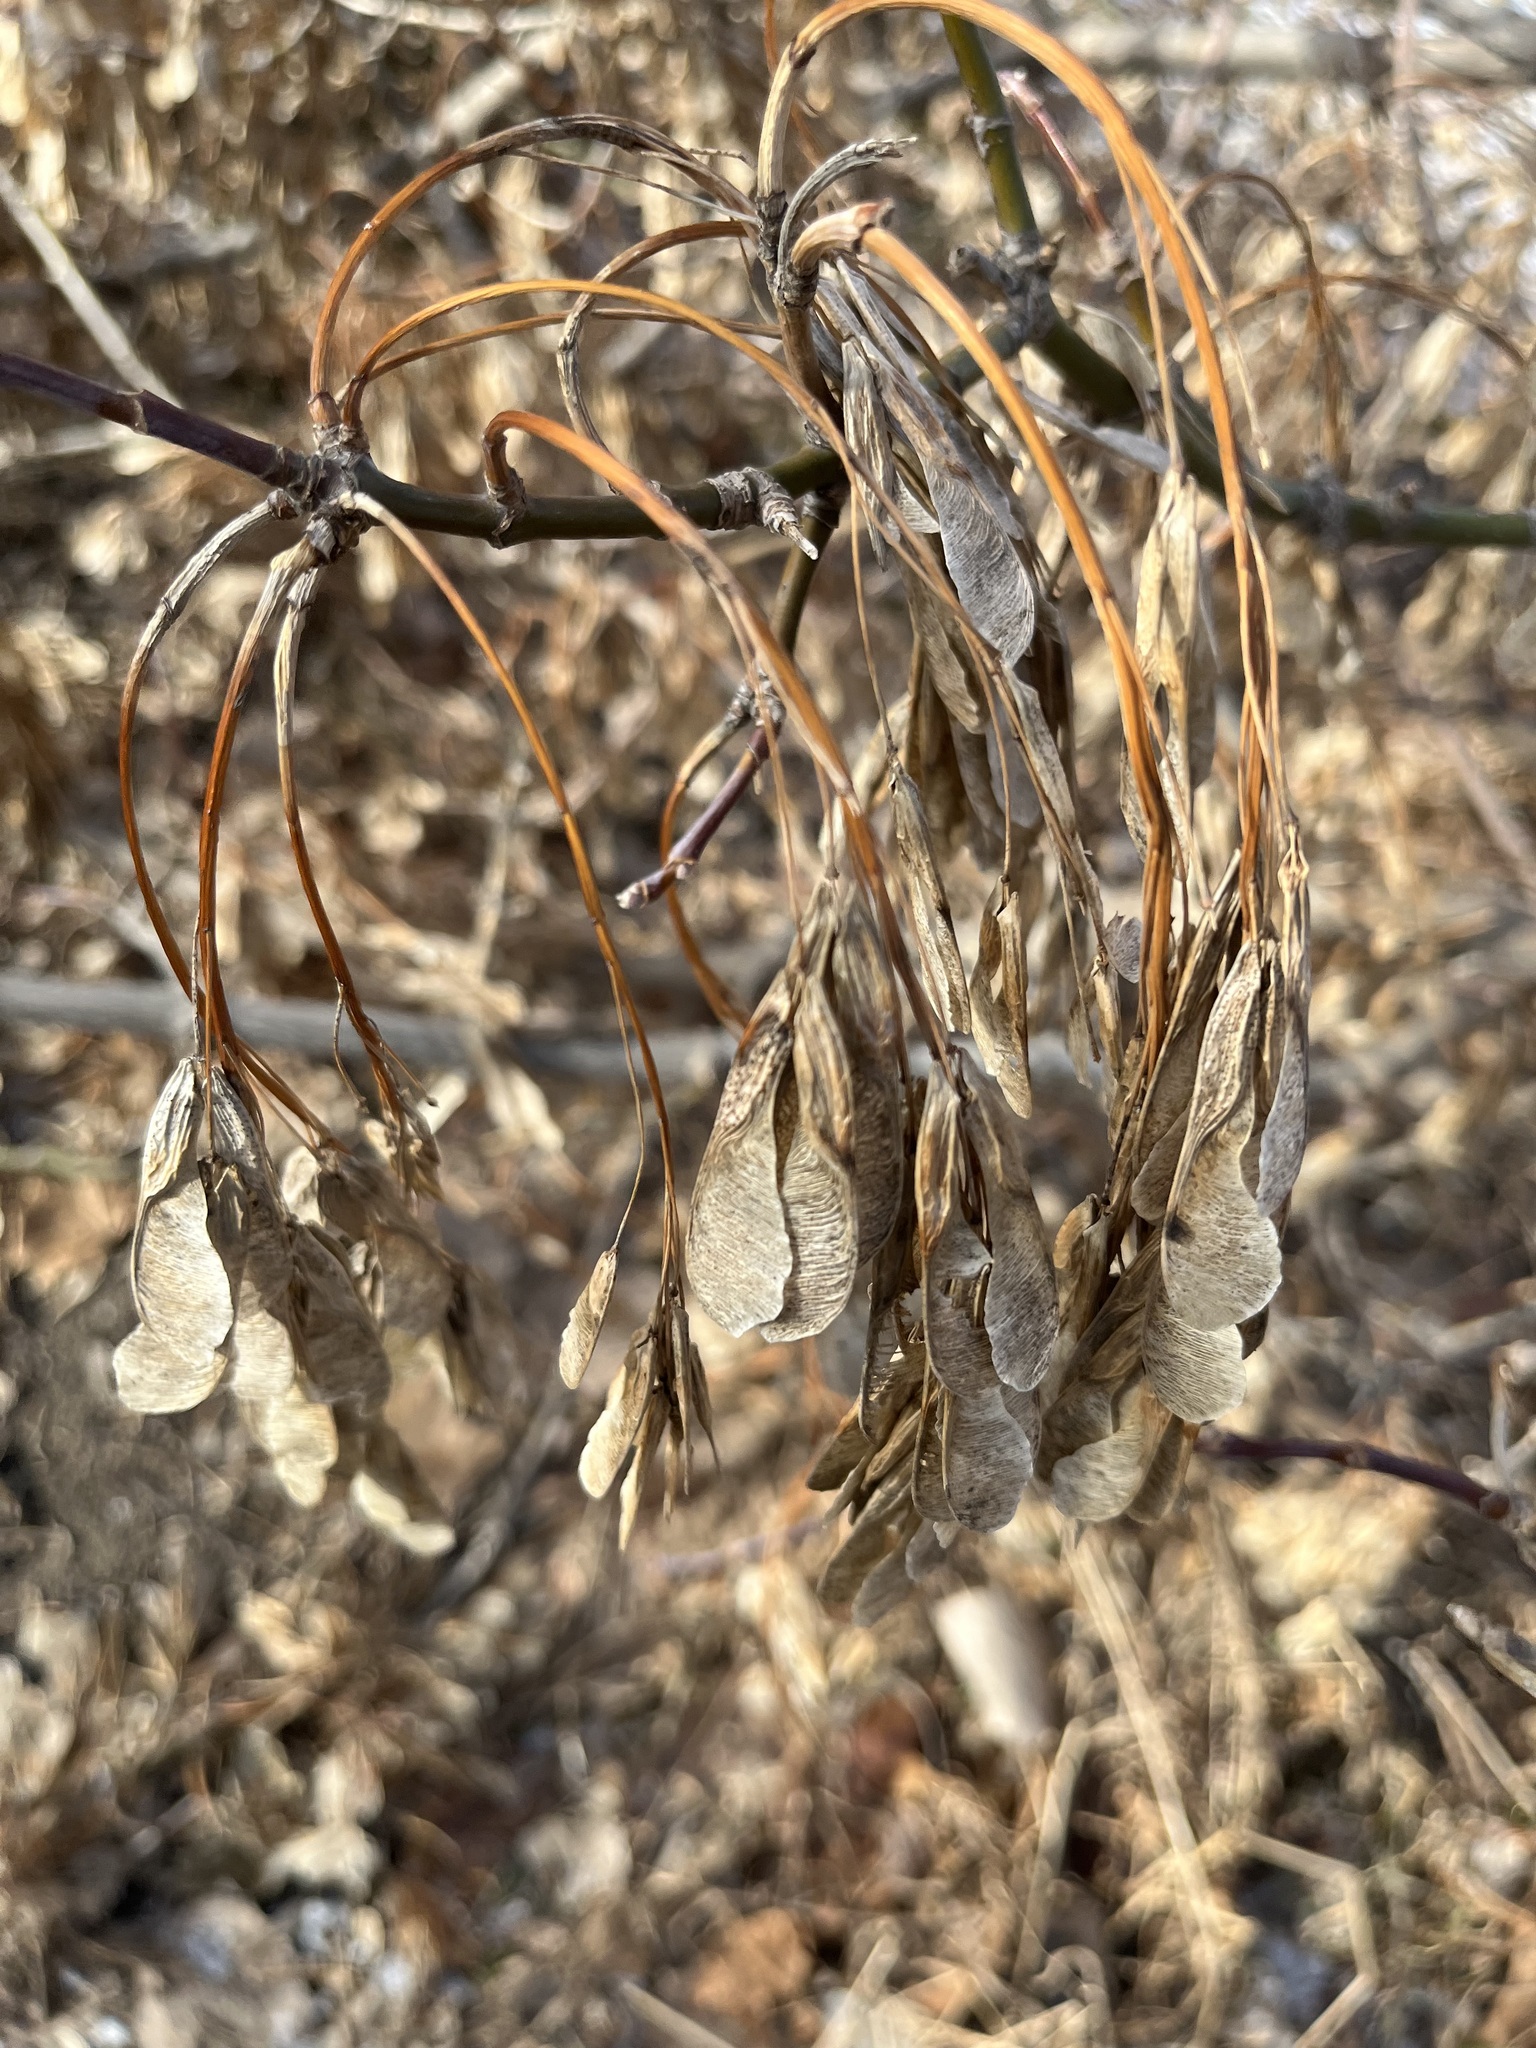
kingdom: Plantae
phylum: Tracheophyta
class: Magnoliopsida
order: Sapindales
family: Sapindaceae
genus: Acer
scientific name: Acer negundo
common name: Ashleaf maple
